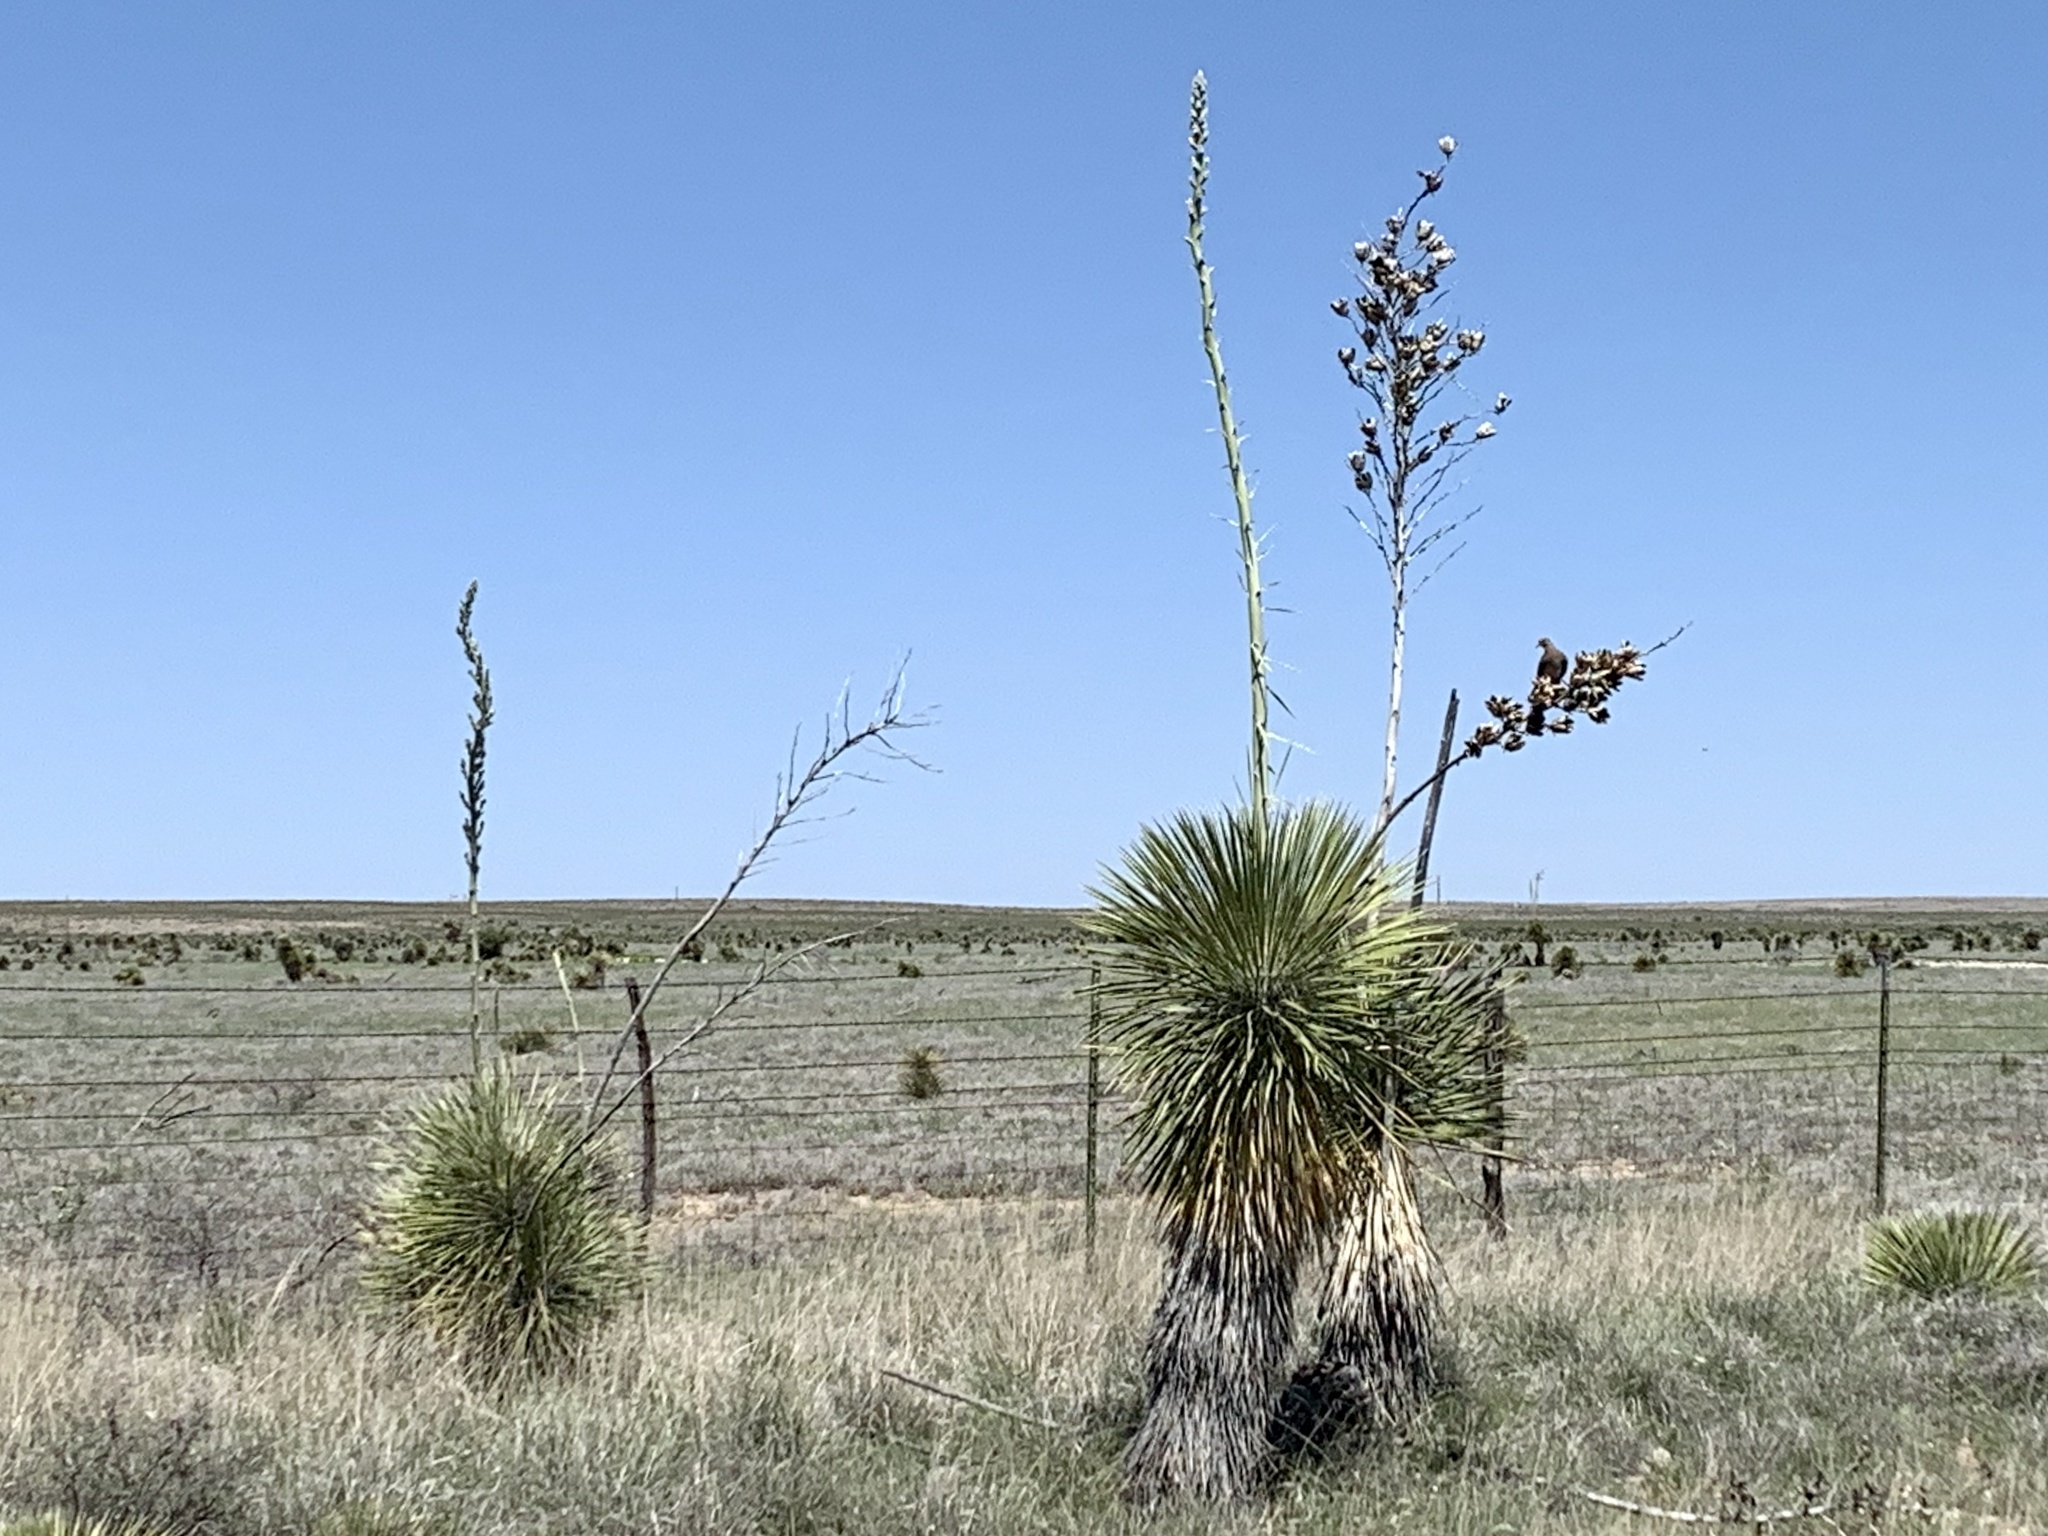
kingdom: Plantae
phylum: Tracheophyta
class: Liliopsida
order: Asparagales
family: Asparagaceae
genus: Yucca
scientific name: Yucca elata
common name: Palmella
